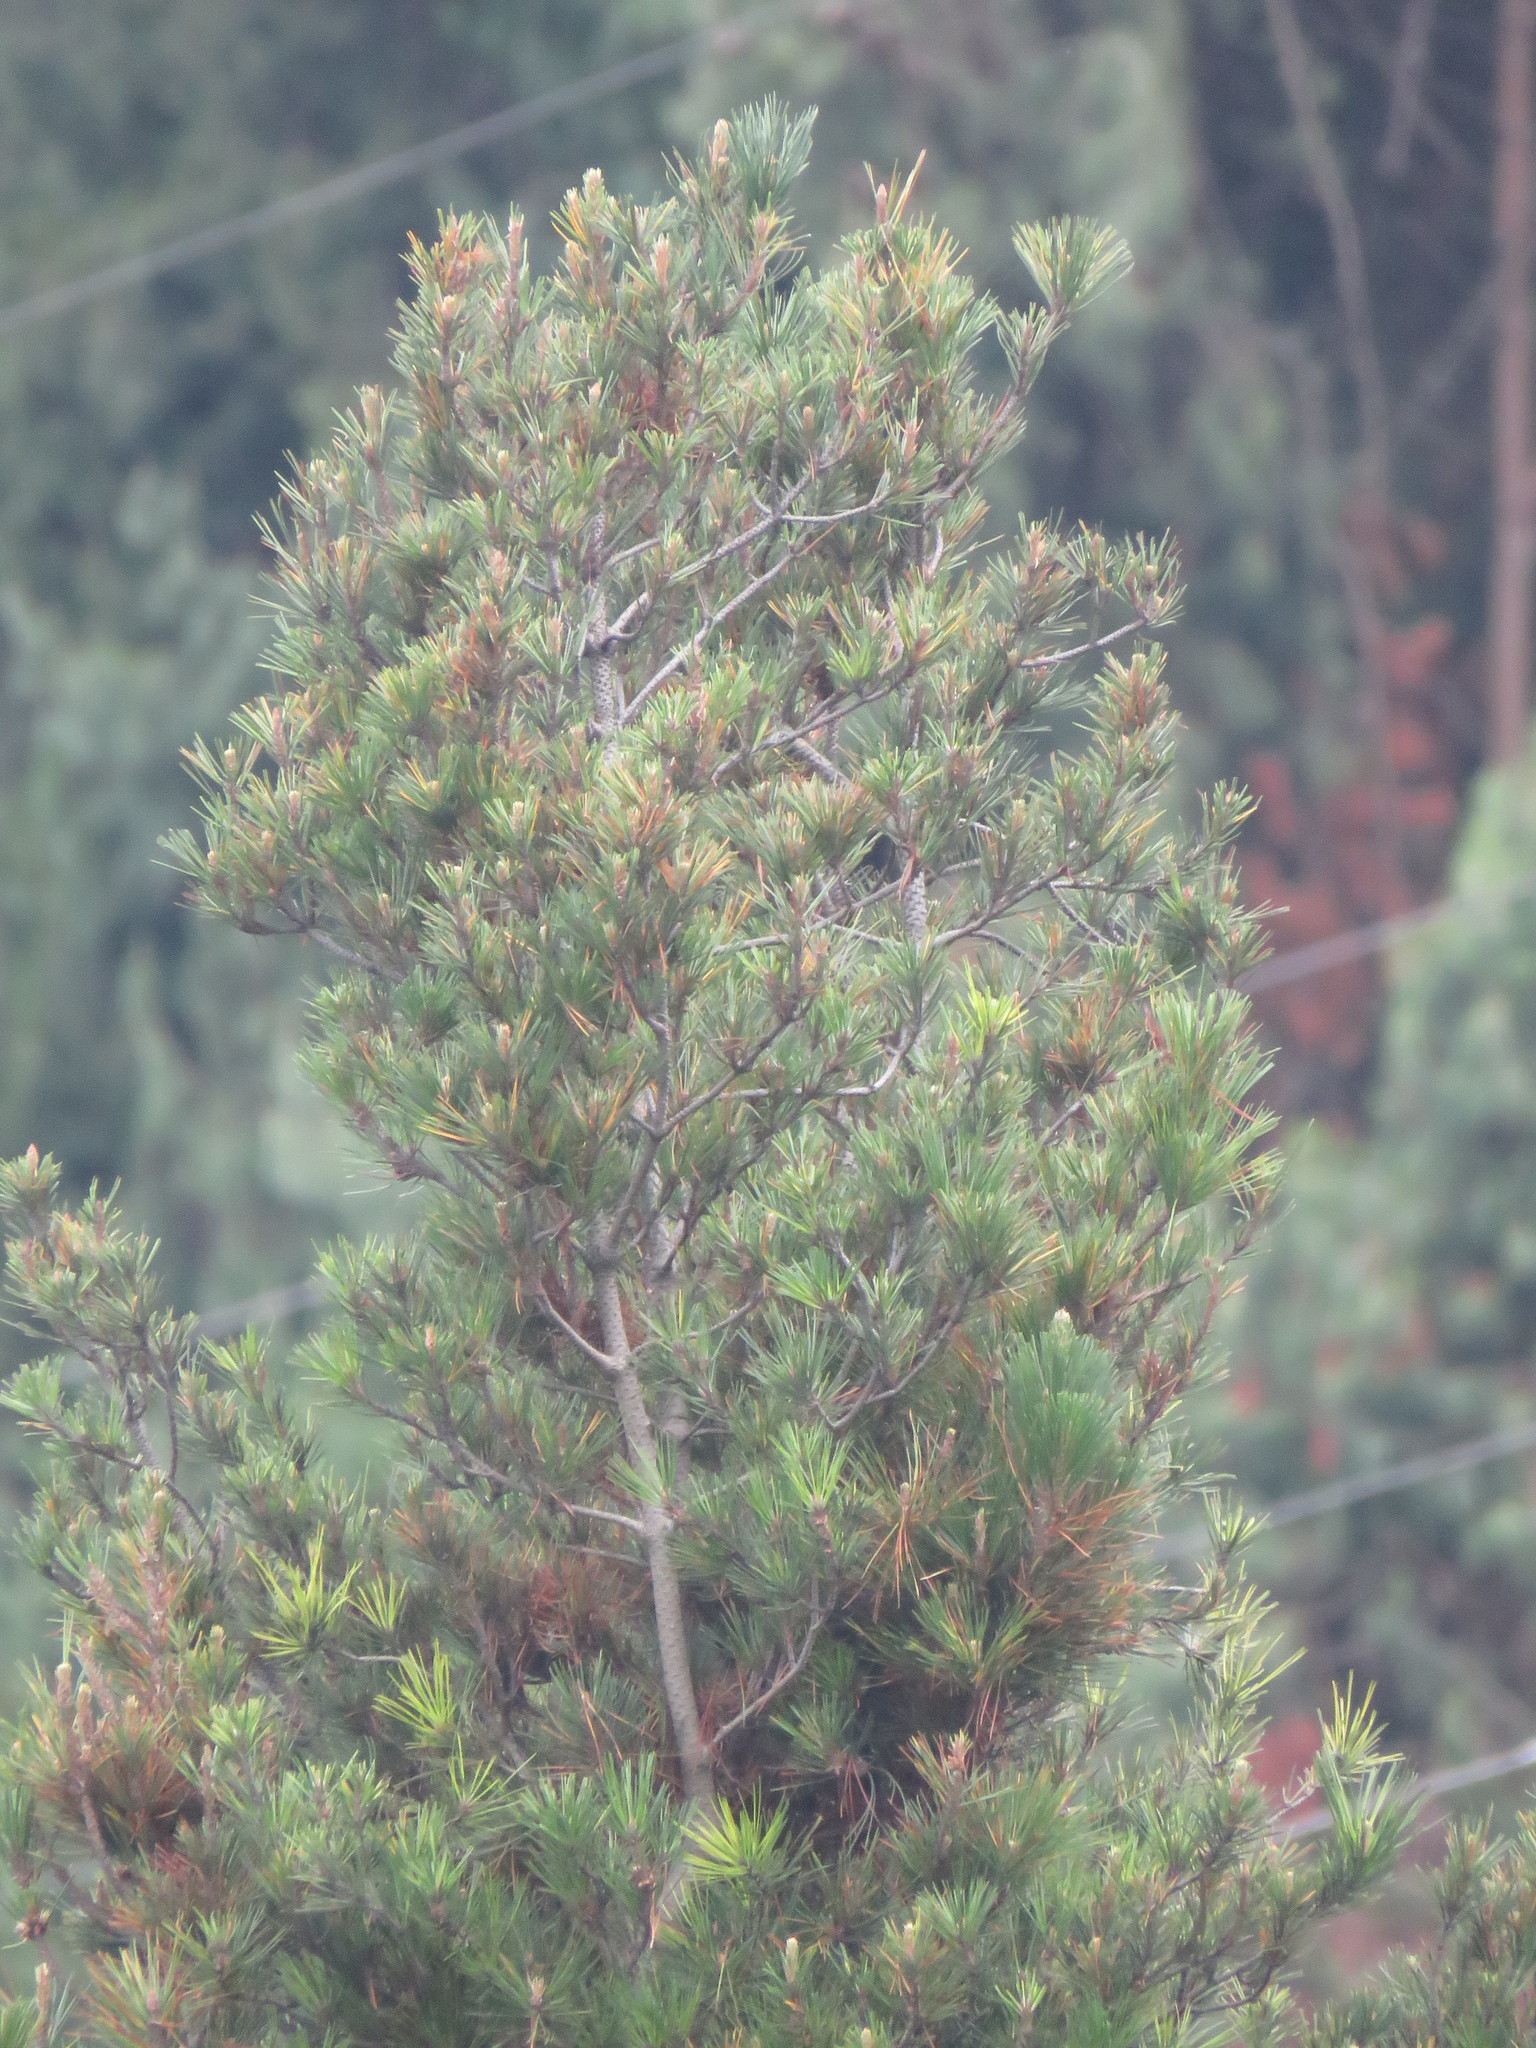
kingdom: Plantae
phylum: Tracheophyta
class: Pinopsida
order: Pinales
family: Pinaceae
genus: Pinus
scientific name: Pinus radiata
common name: Monterey pine
